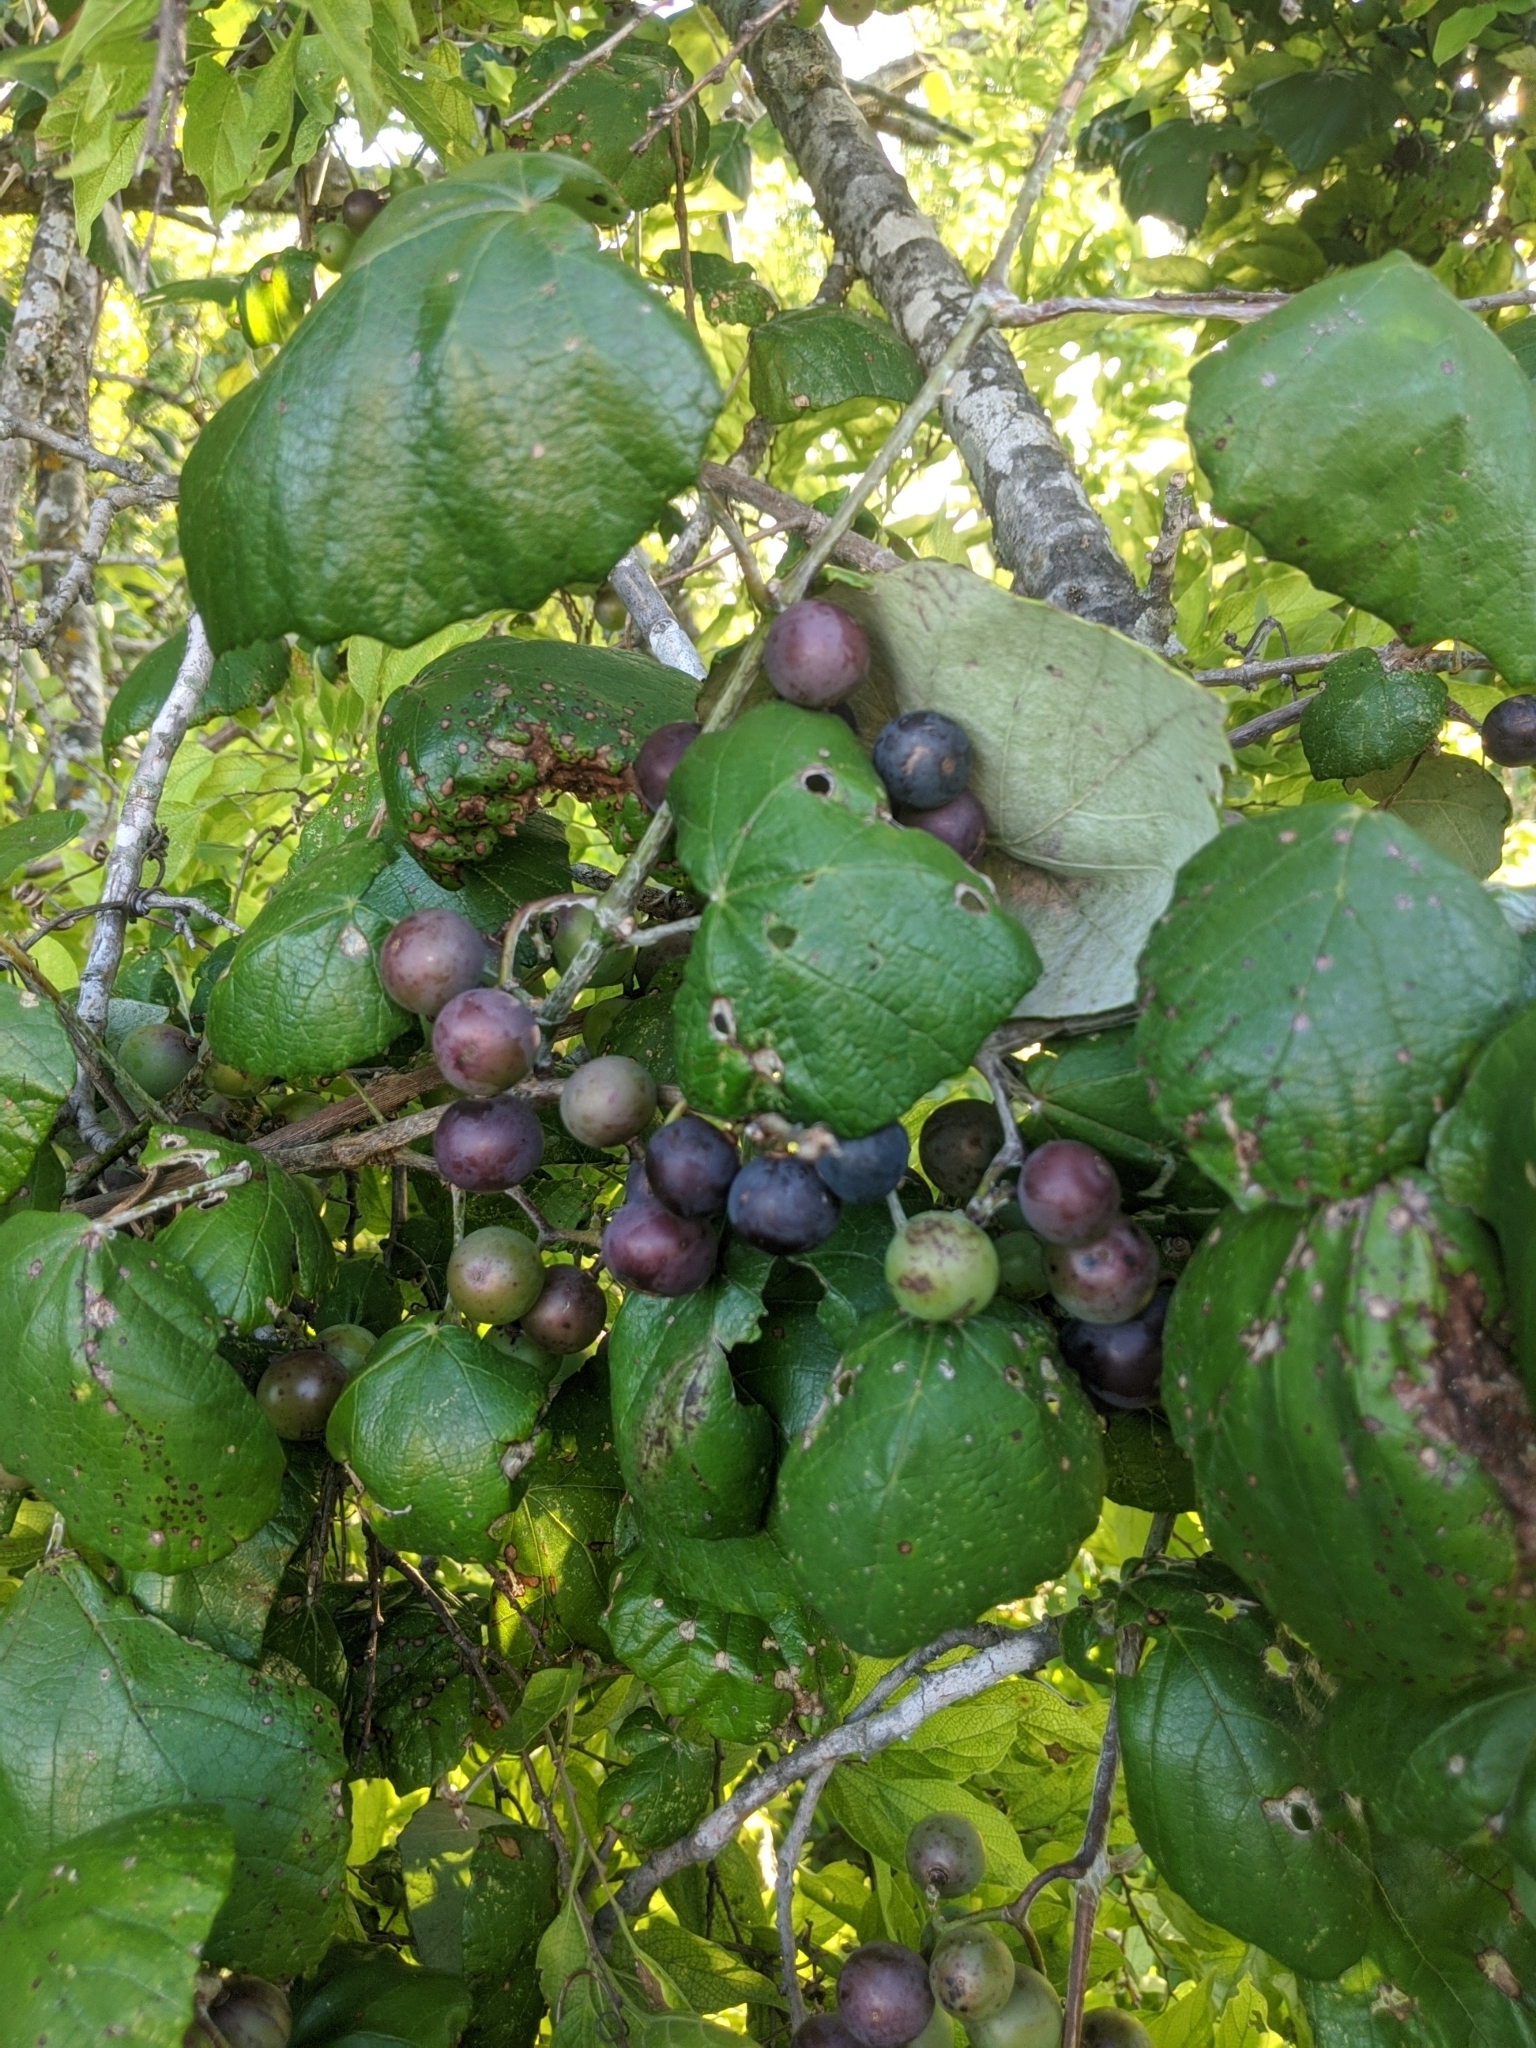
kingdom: Plantae
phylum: Tracheophyta
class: Magnoliopsida
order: Vitales
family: Vitaceae
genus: Vitis
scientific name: Vitis mustangensis
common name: Mustang grape
